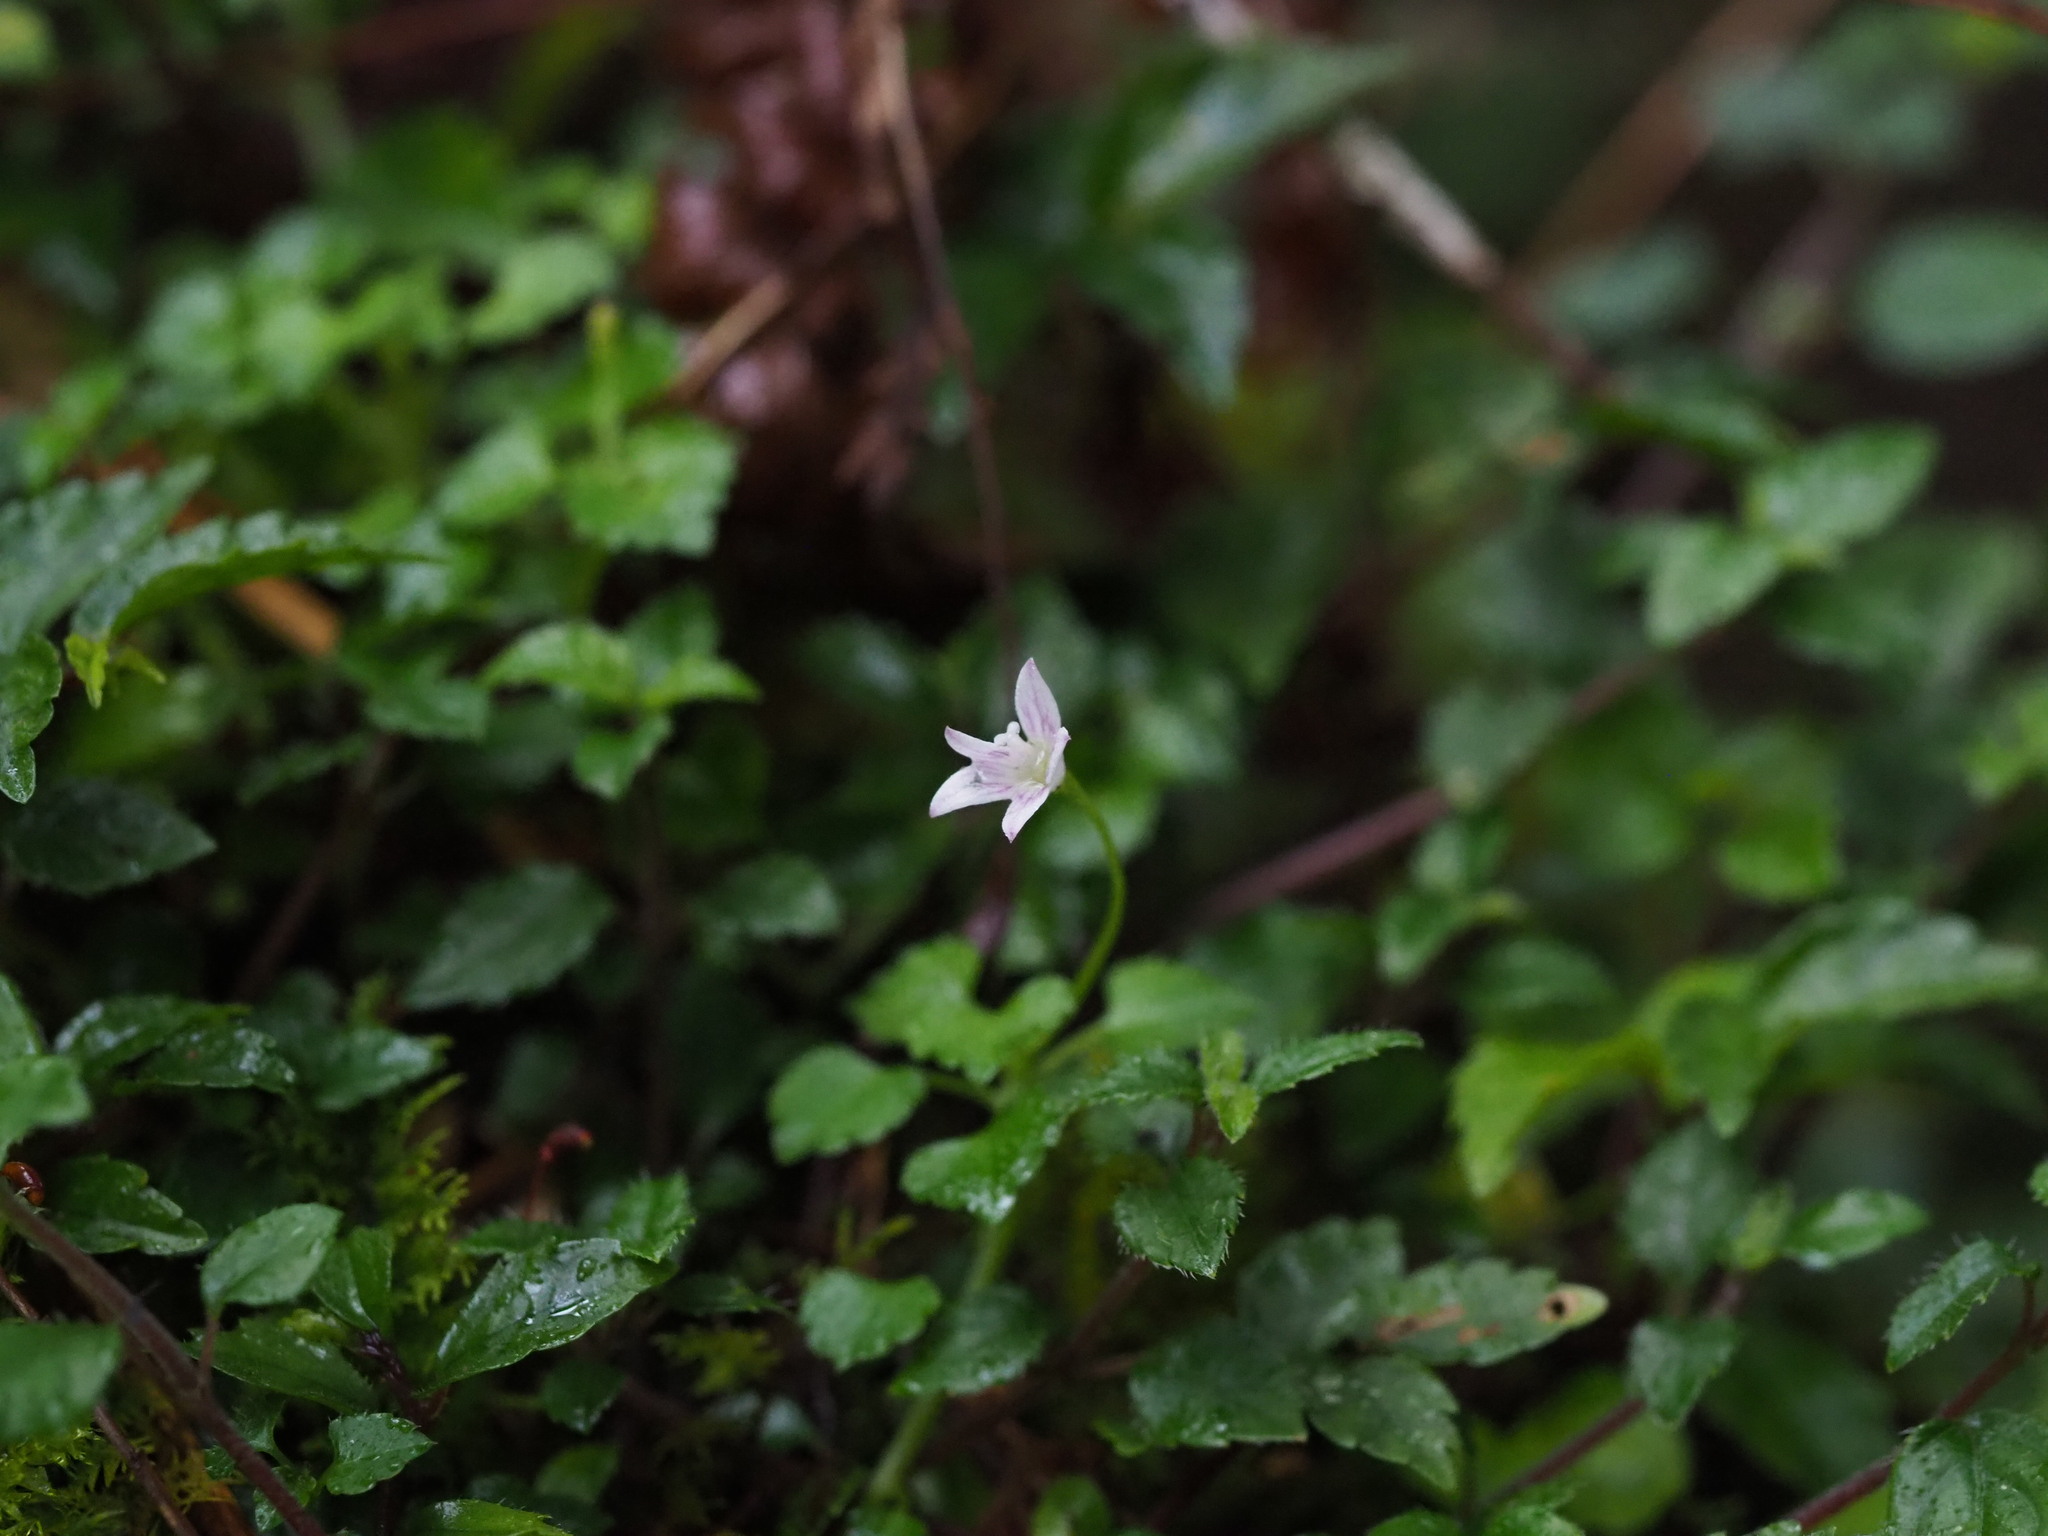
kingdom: Plantae
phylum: Tracheophyta
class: Magnoliopsida
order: Asterales
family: Campanulaceae
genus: Peracarpa
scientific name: Peracarpa carnosa
